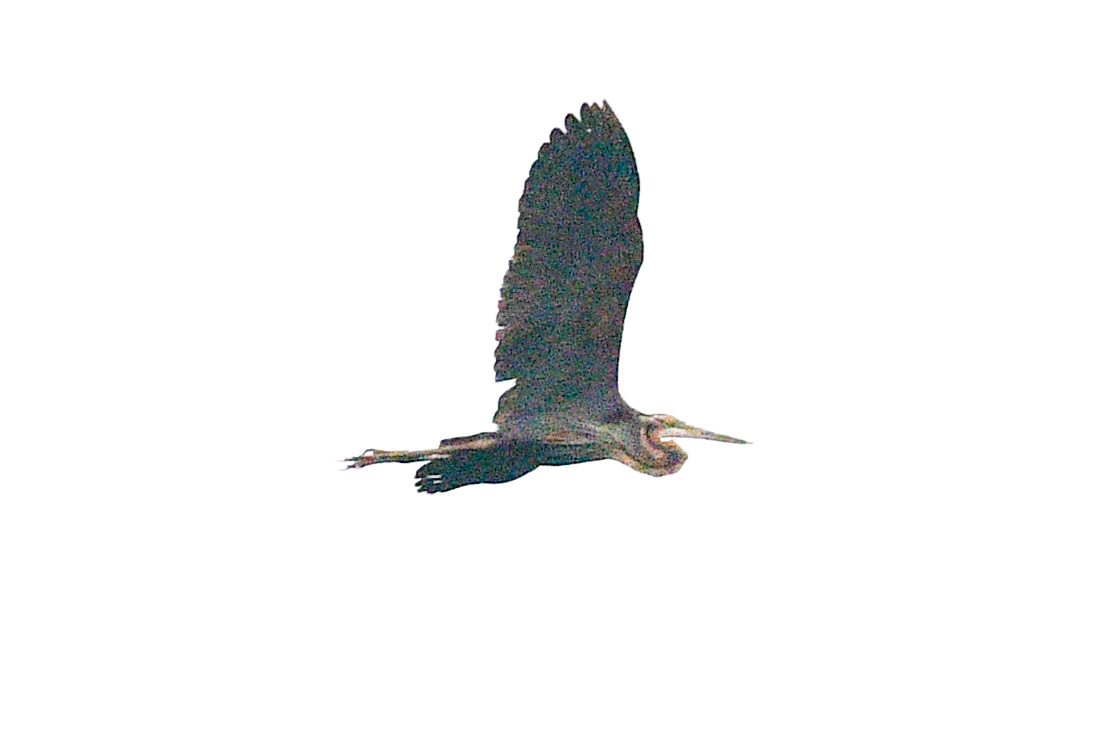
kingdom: Animalia
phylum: Chordata
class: Aves
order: Pelecaniformes
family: Ardeidae
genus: Ardea
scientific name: Ardea purpurea
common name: Purple heron
